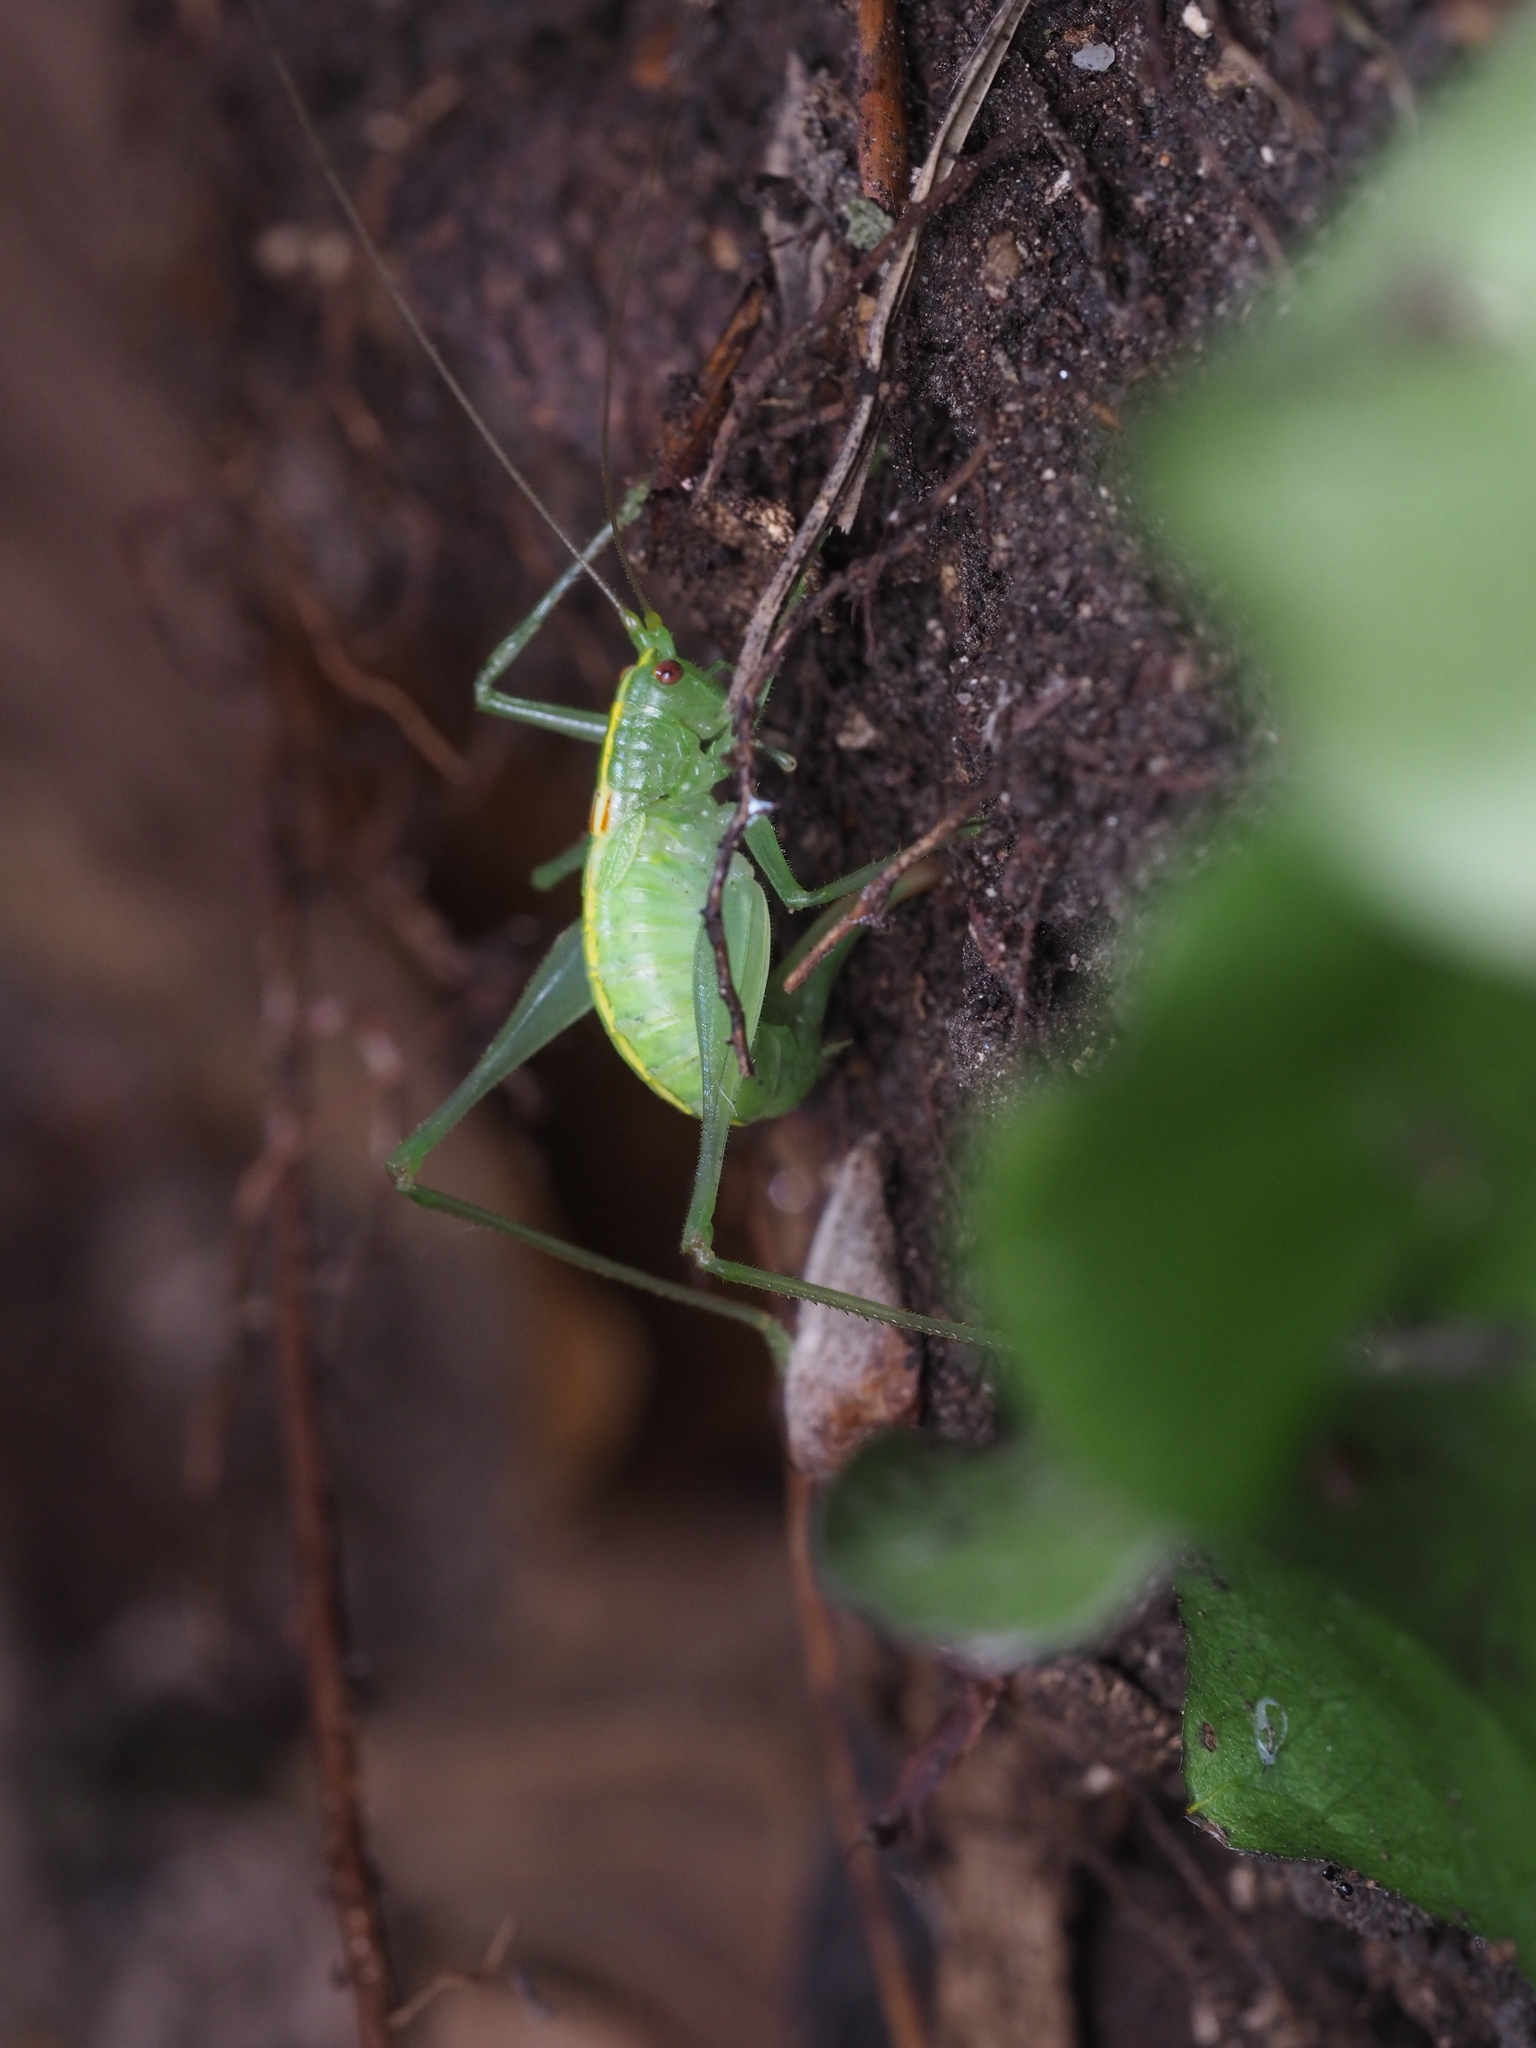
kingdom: Animalia
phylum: Arthropoda
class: Insecta
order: Orthoptera
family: Tettigoniidae
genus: Meconema
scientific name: Meconema meridionale
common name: Southern oak bush-cricket
